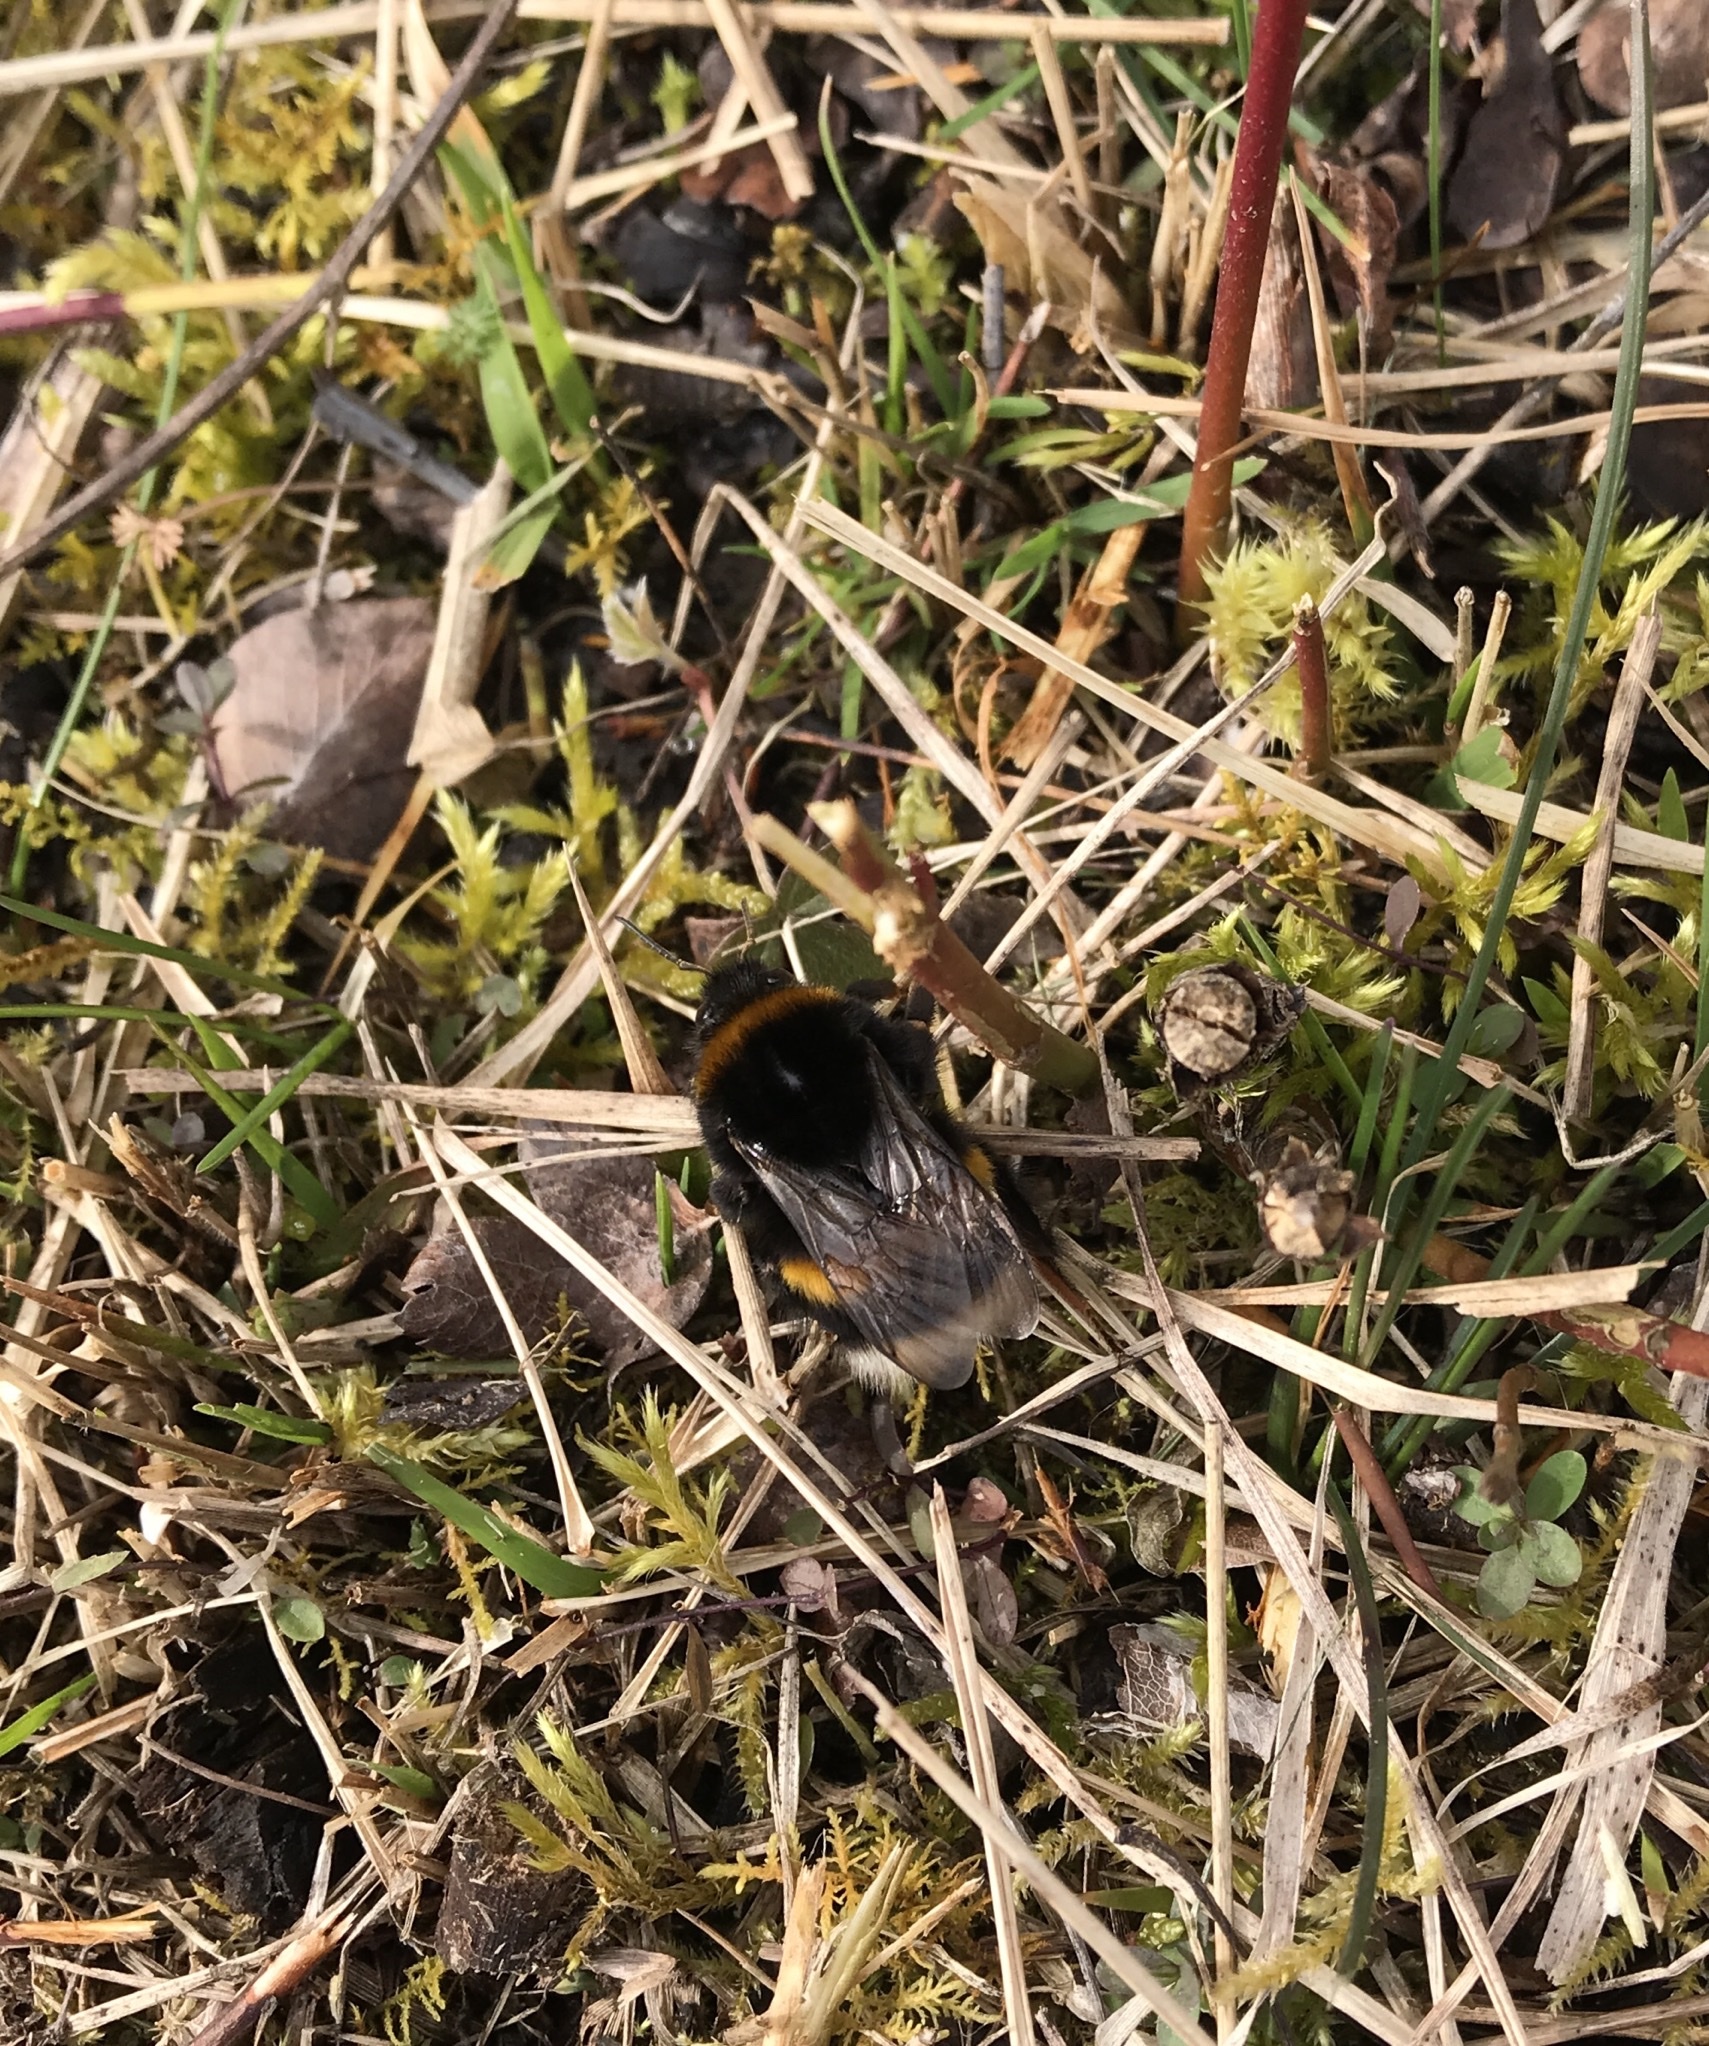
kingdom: Animalia
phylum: Arthropoda
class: Insecta
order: Hymenoptera
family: Apidae
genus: Bombus
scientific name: Bombus terrestris
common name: Buff-tailed bumblebee
